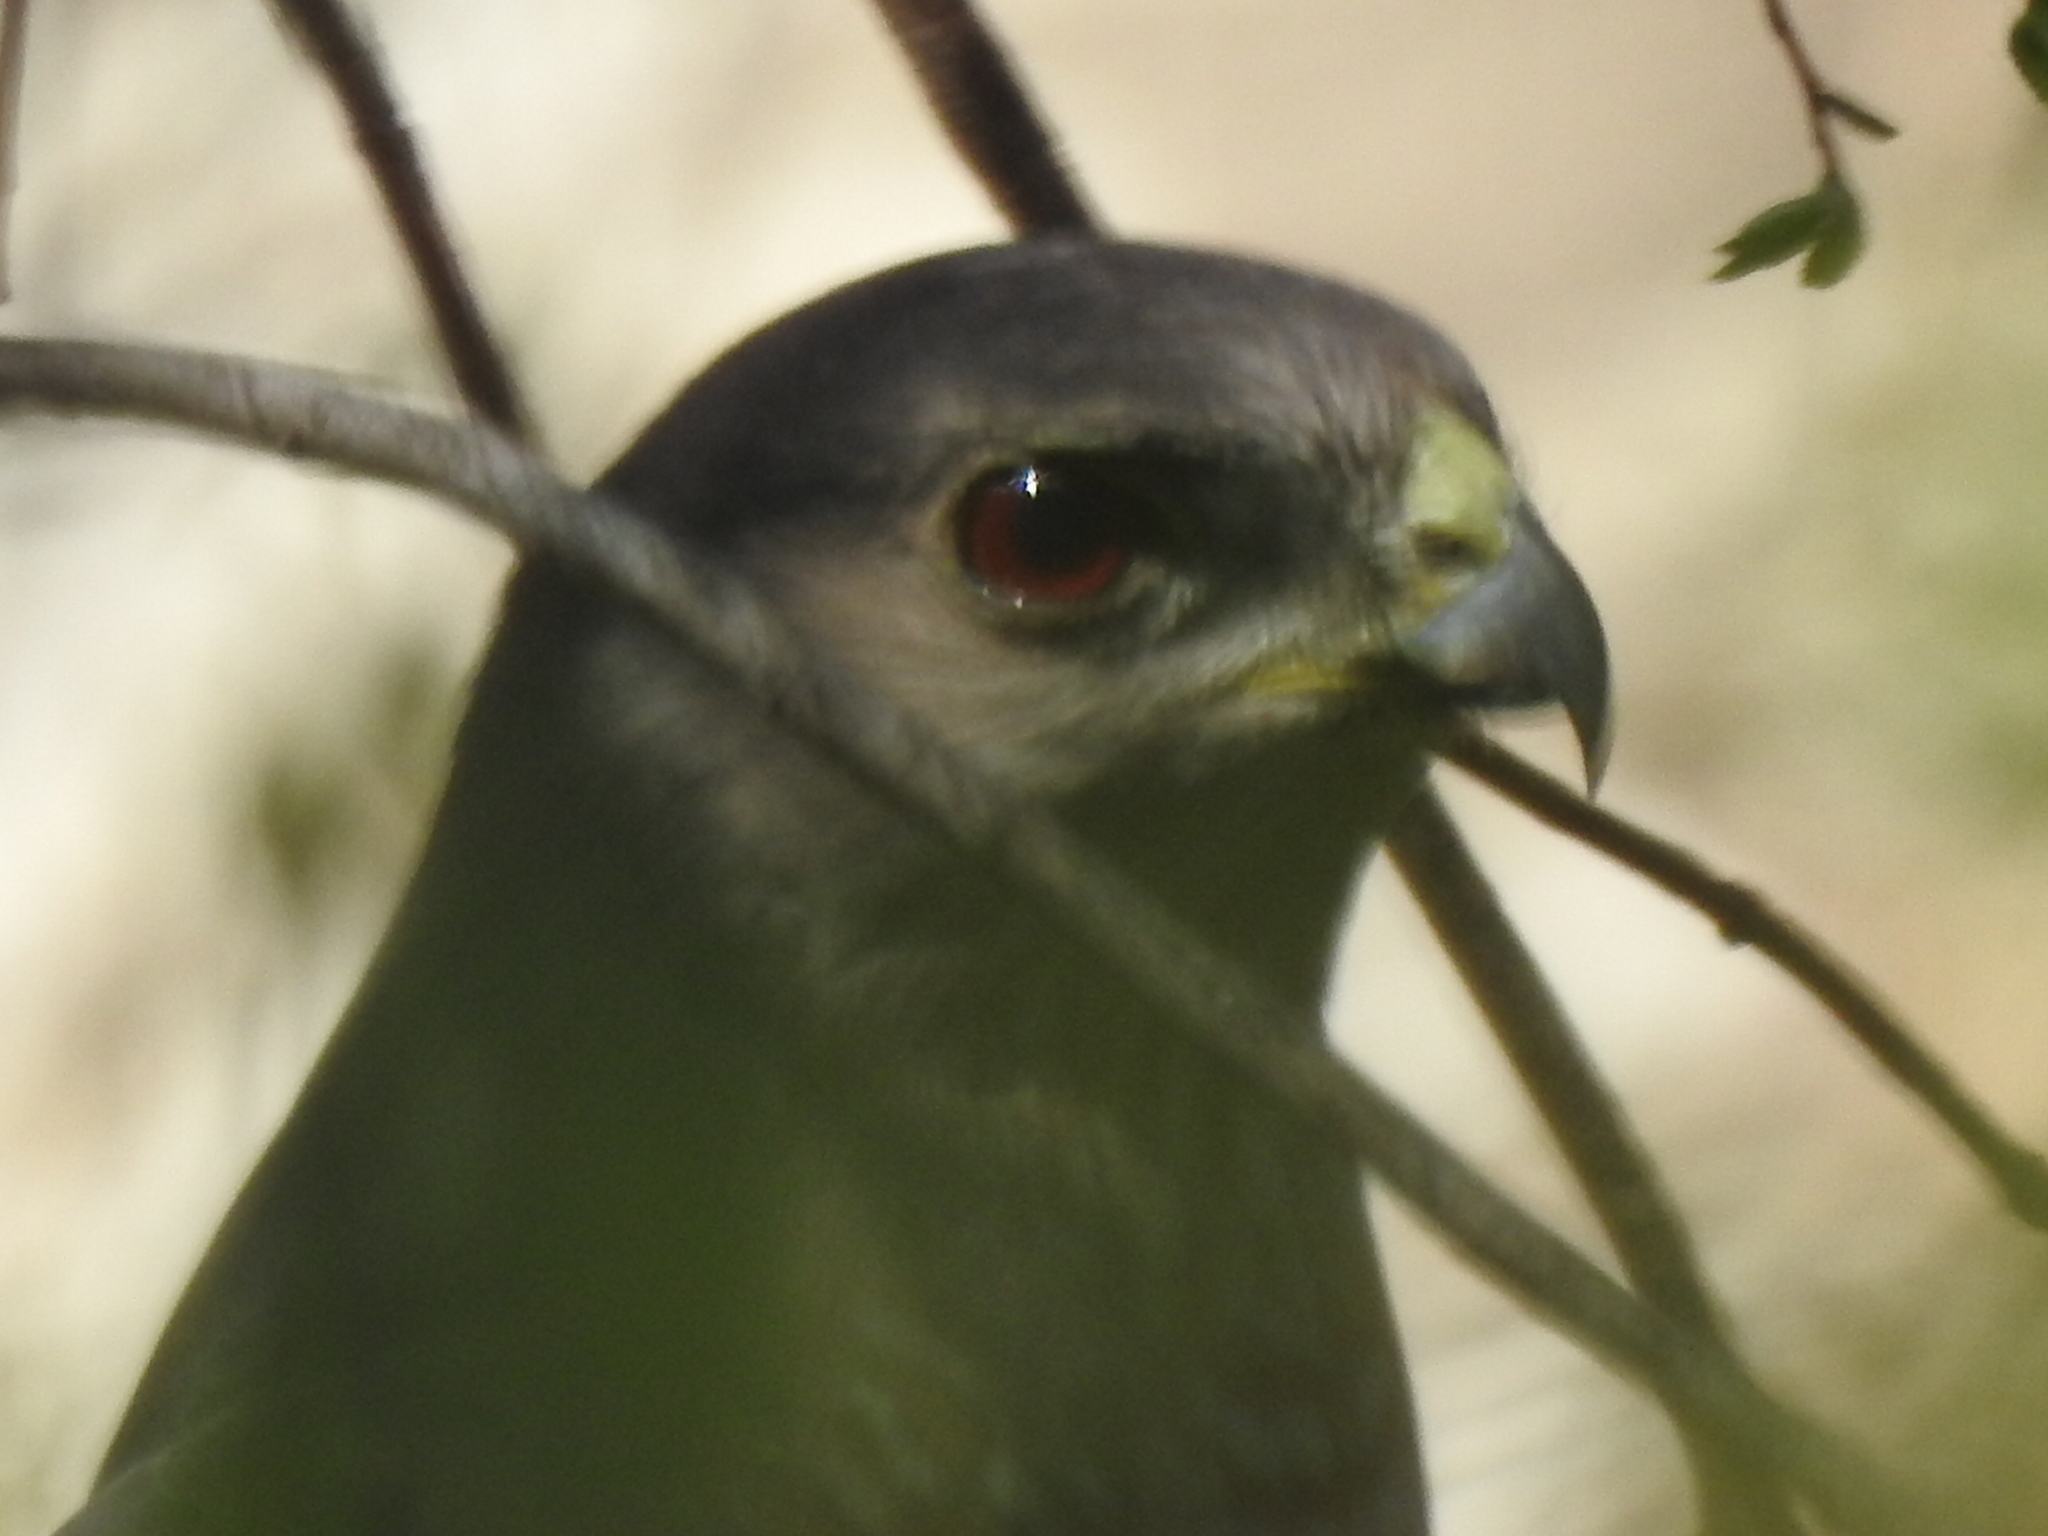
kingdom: Animalia
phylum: Chordata
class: Aves
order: Accipitriformes
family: Accipitridae
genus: Accipiter
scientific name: Accipiter cooperii
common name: Cooper's hawk
